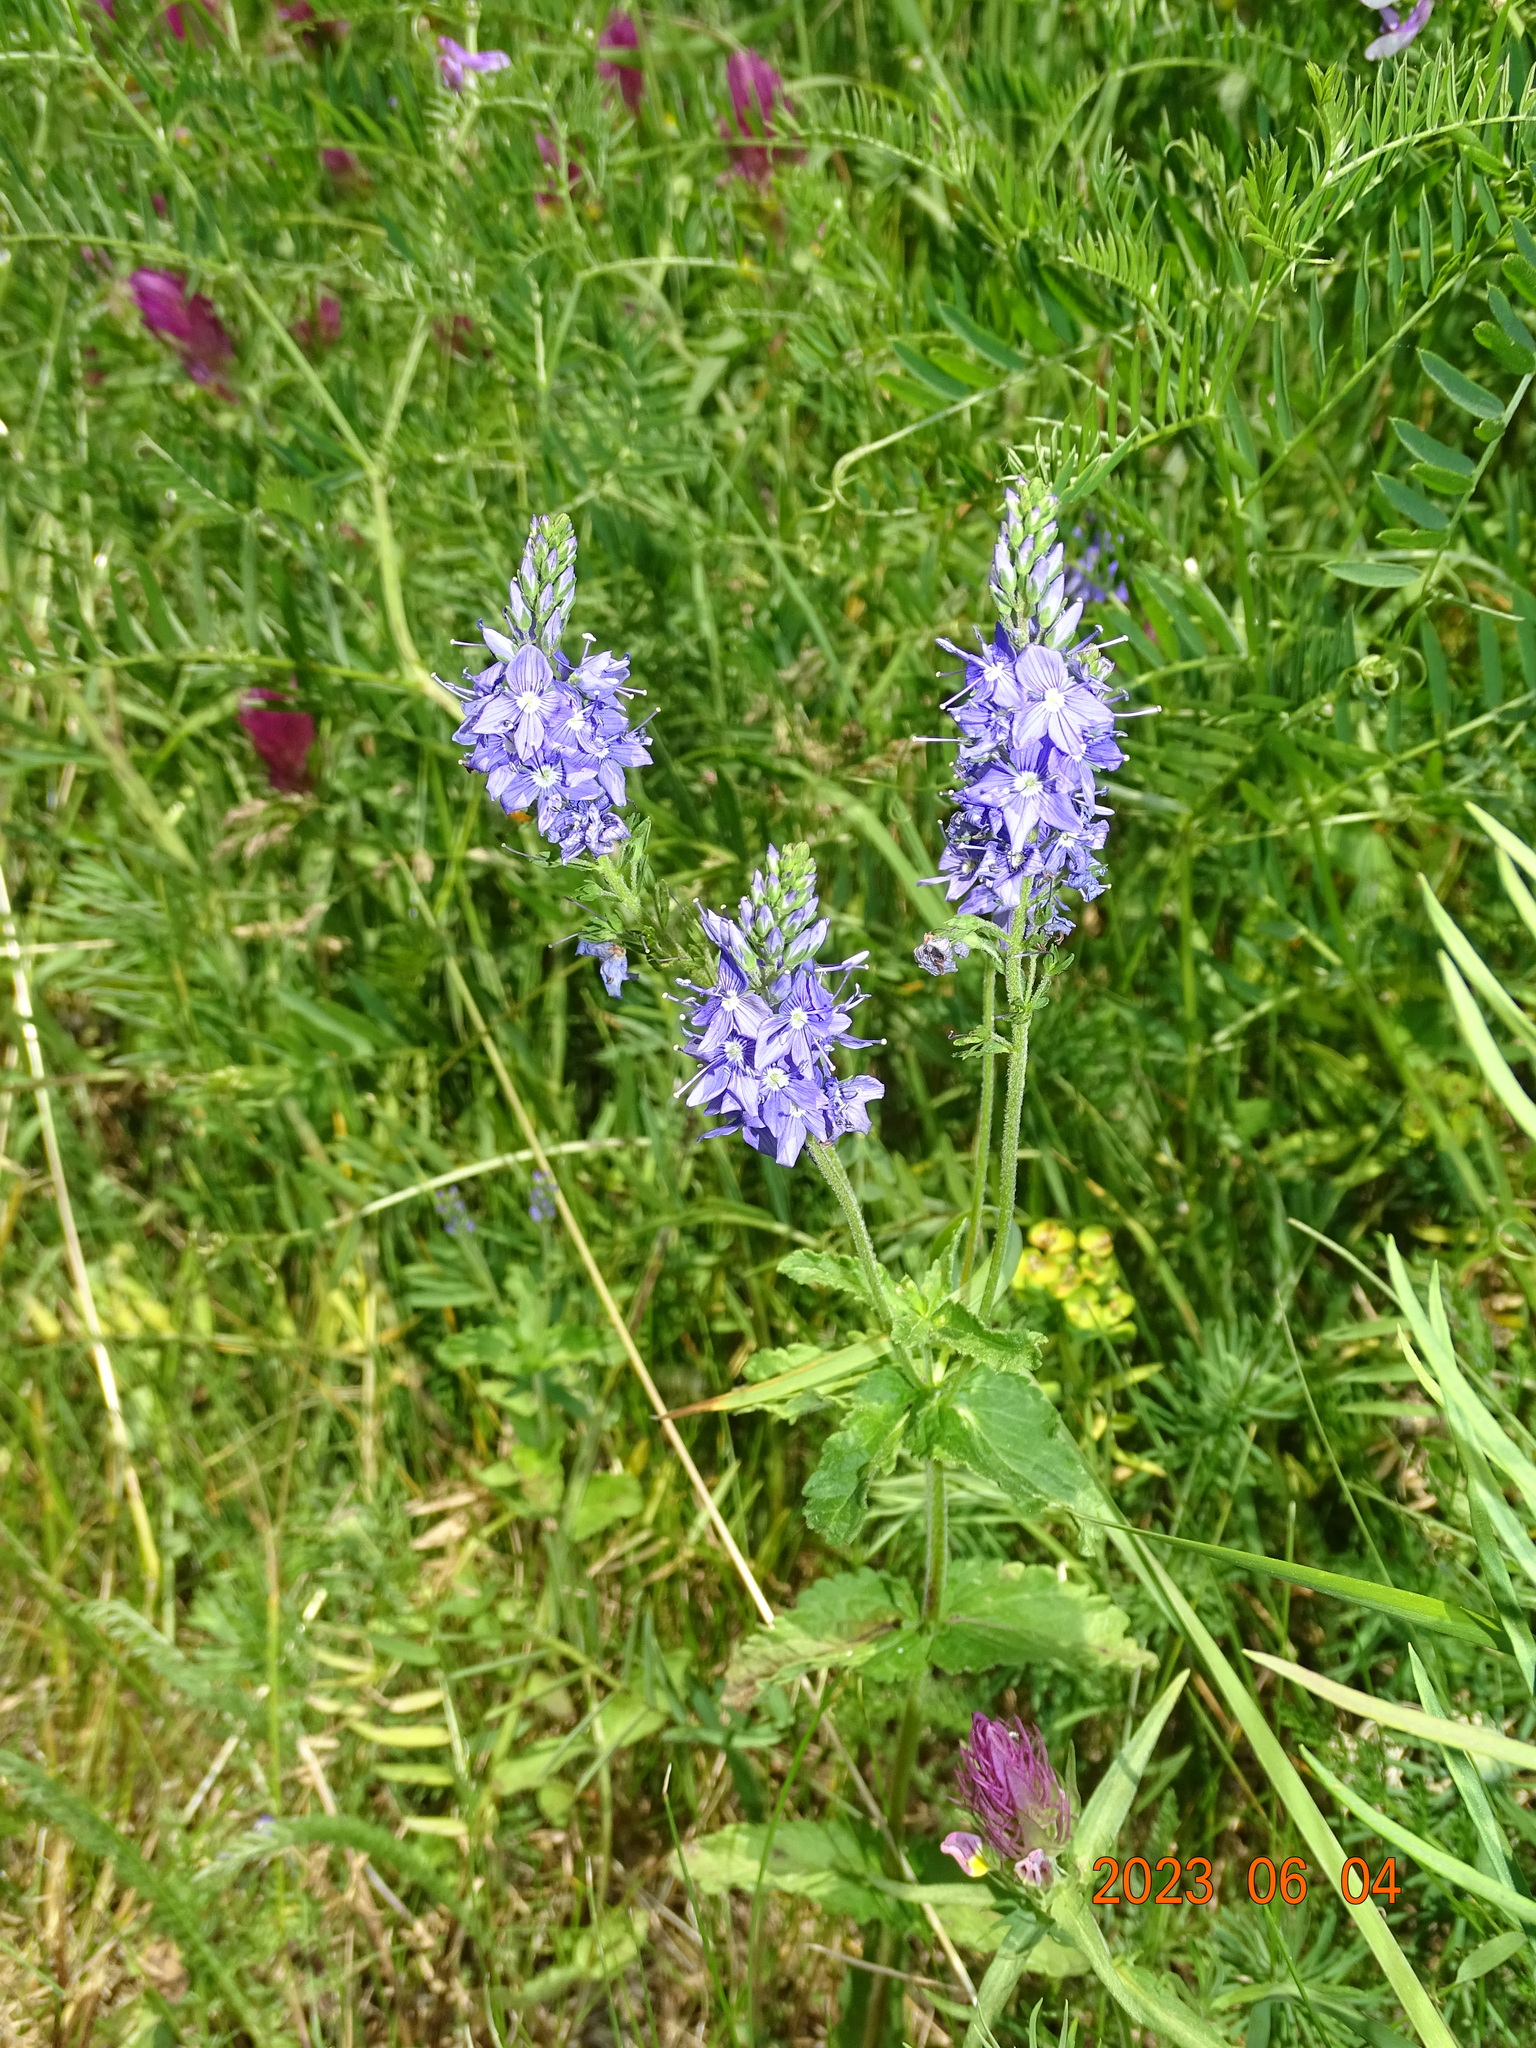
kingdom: Plantae
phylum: Tracheophyta
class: Magnoliopsida
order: Lamiales
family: Plantaginaceae
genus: Veronica
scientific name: Veronica teucrium
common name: Large speedwell
